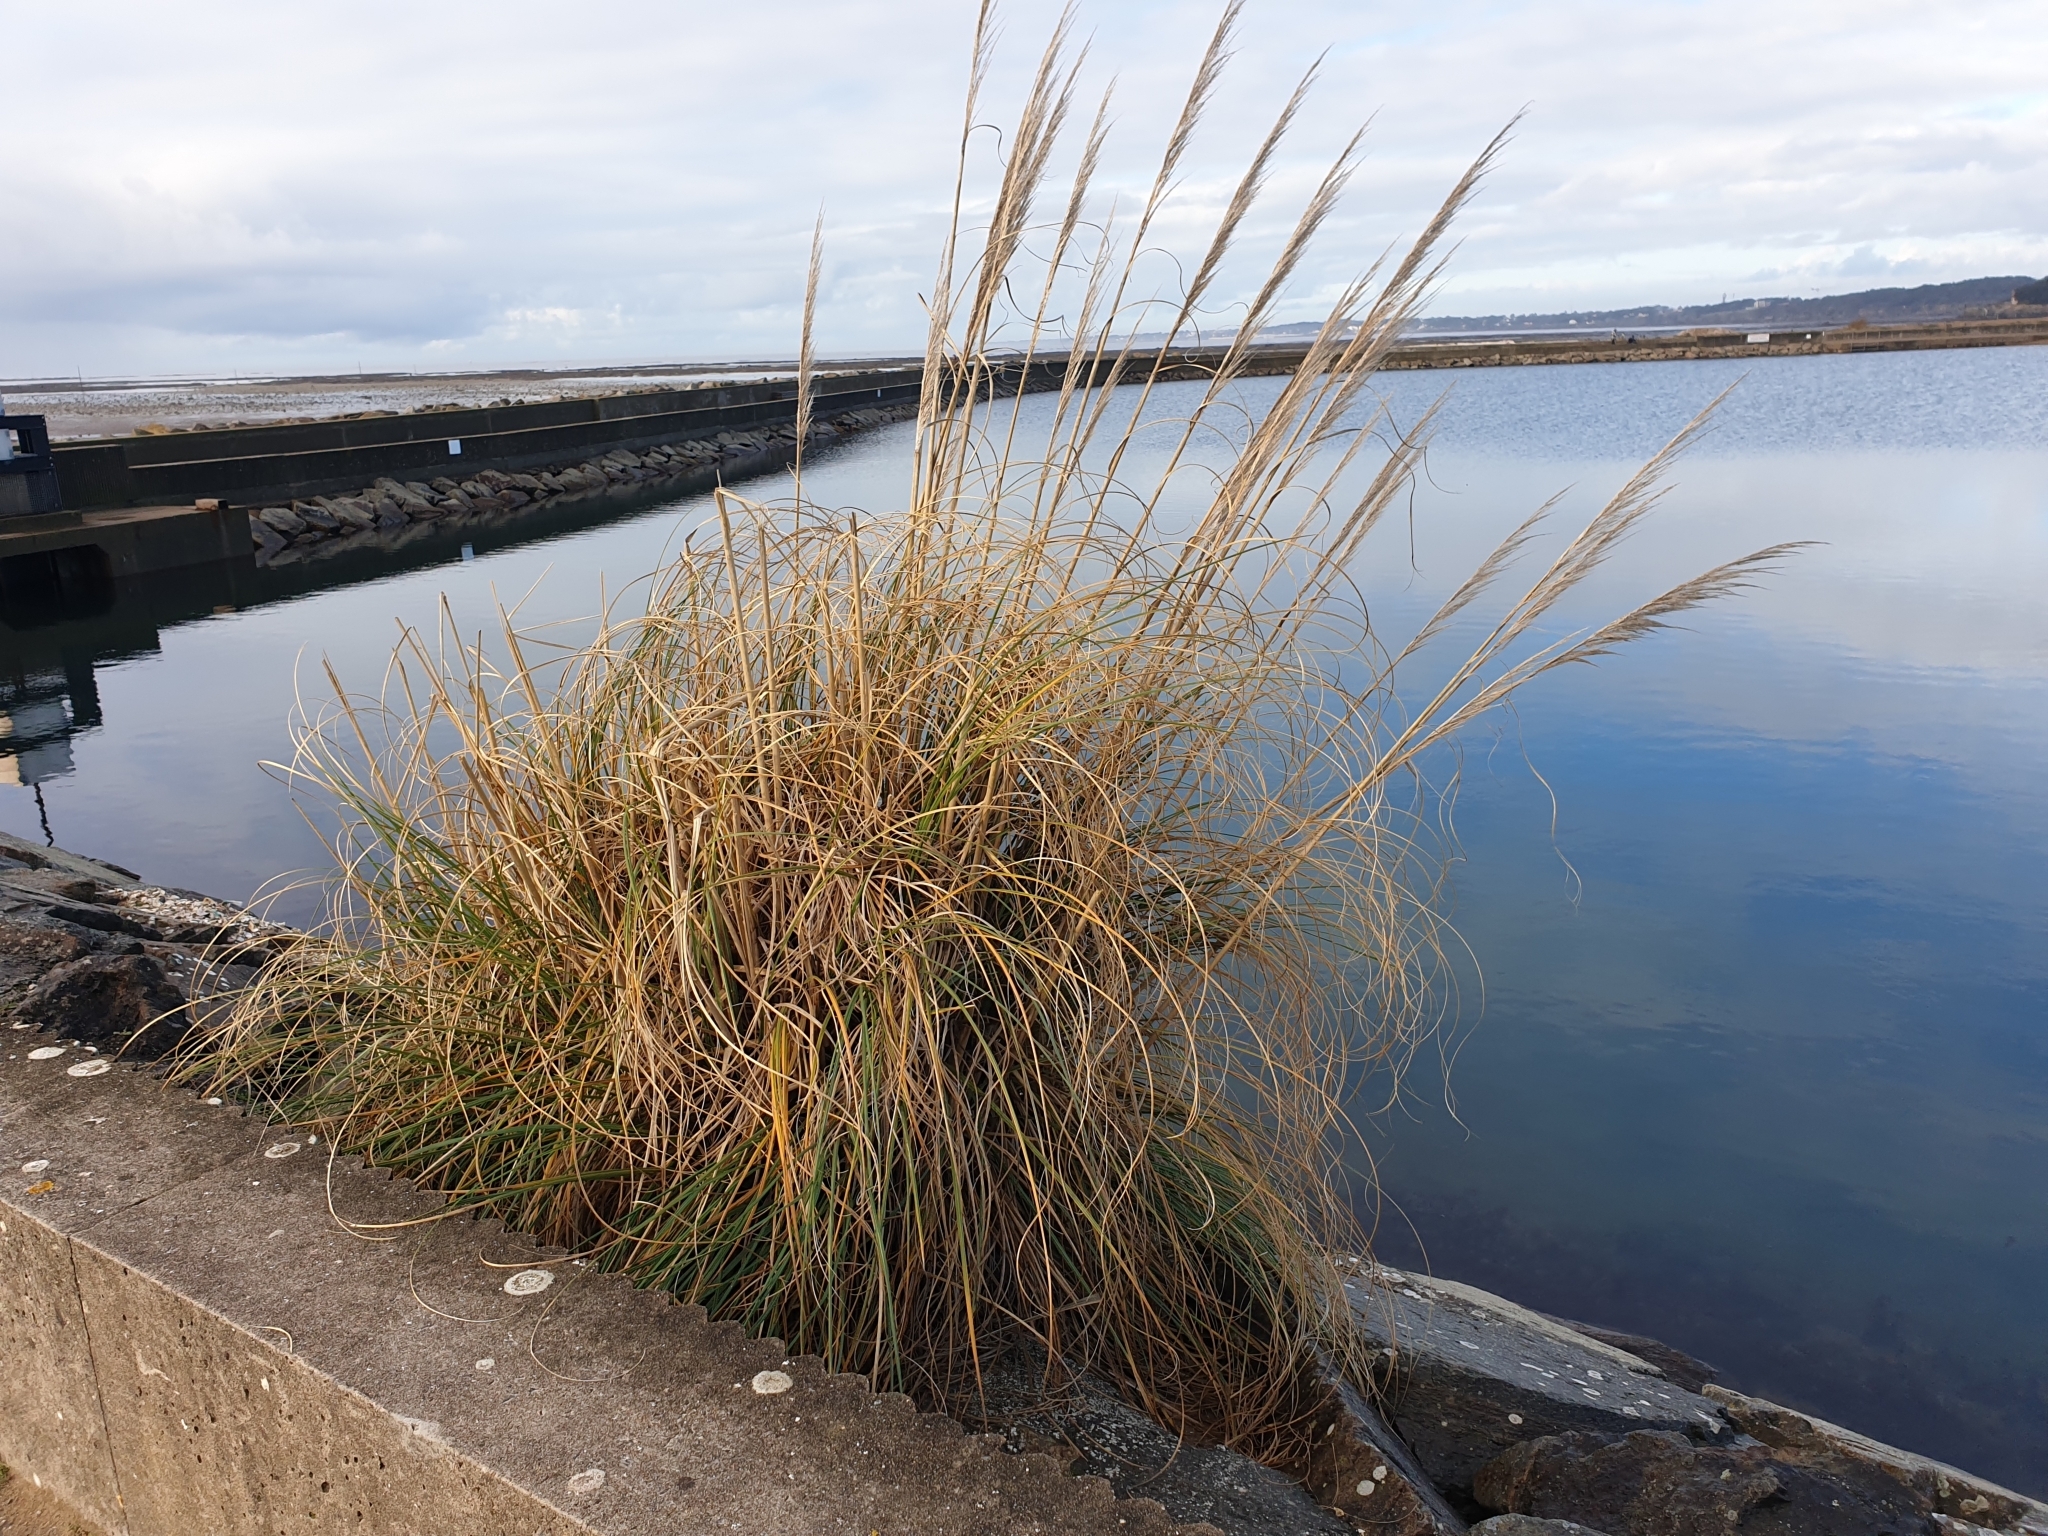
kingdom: Plantae
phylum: Tracheophyta
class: Liliopsida
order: Poales
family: Poaceae
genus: Cortaderia
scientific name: Cortaderia selloana
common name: Uruguayan pampas grass
